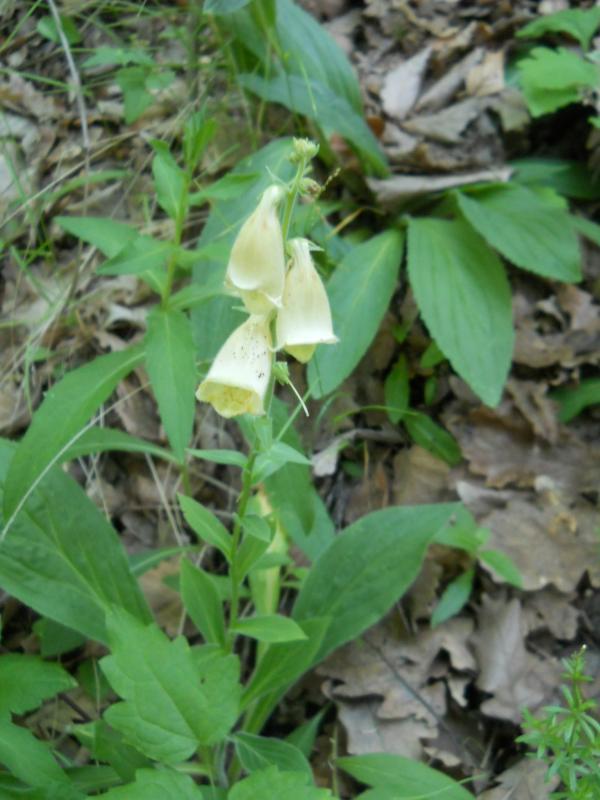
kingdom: Plantae
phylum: Tracheophyta
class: Magnoliopsida
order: Lamiales
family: Plantaginaceae
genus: Digitalis
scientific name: Digitalis grandiflora
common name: Yellow foxglove
